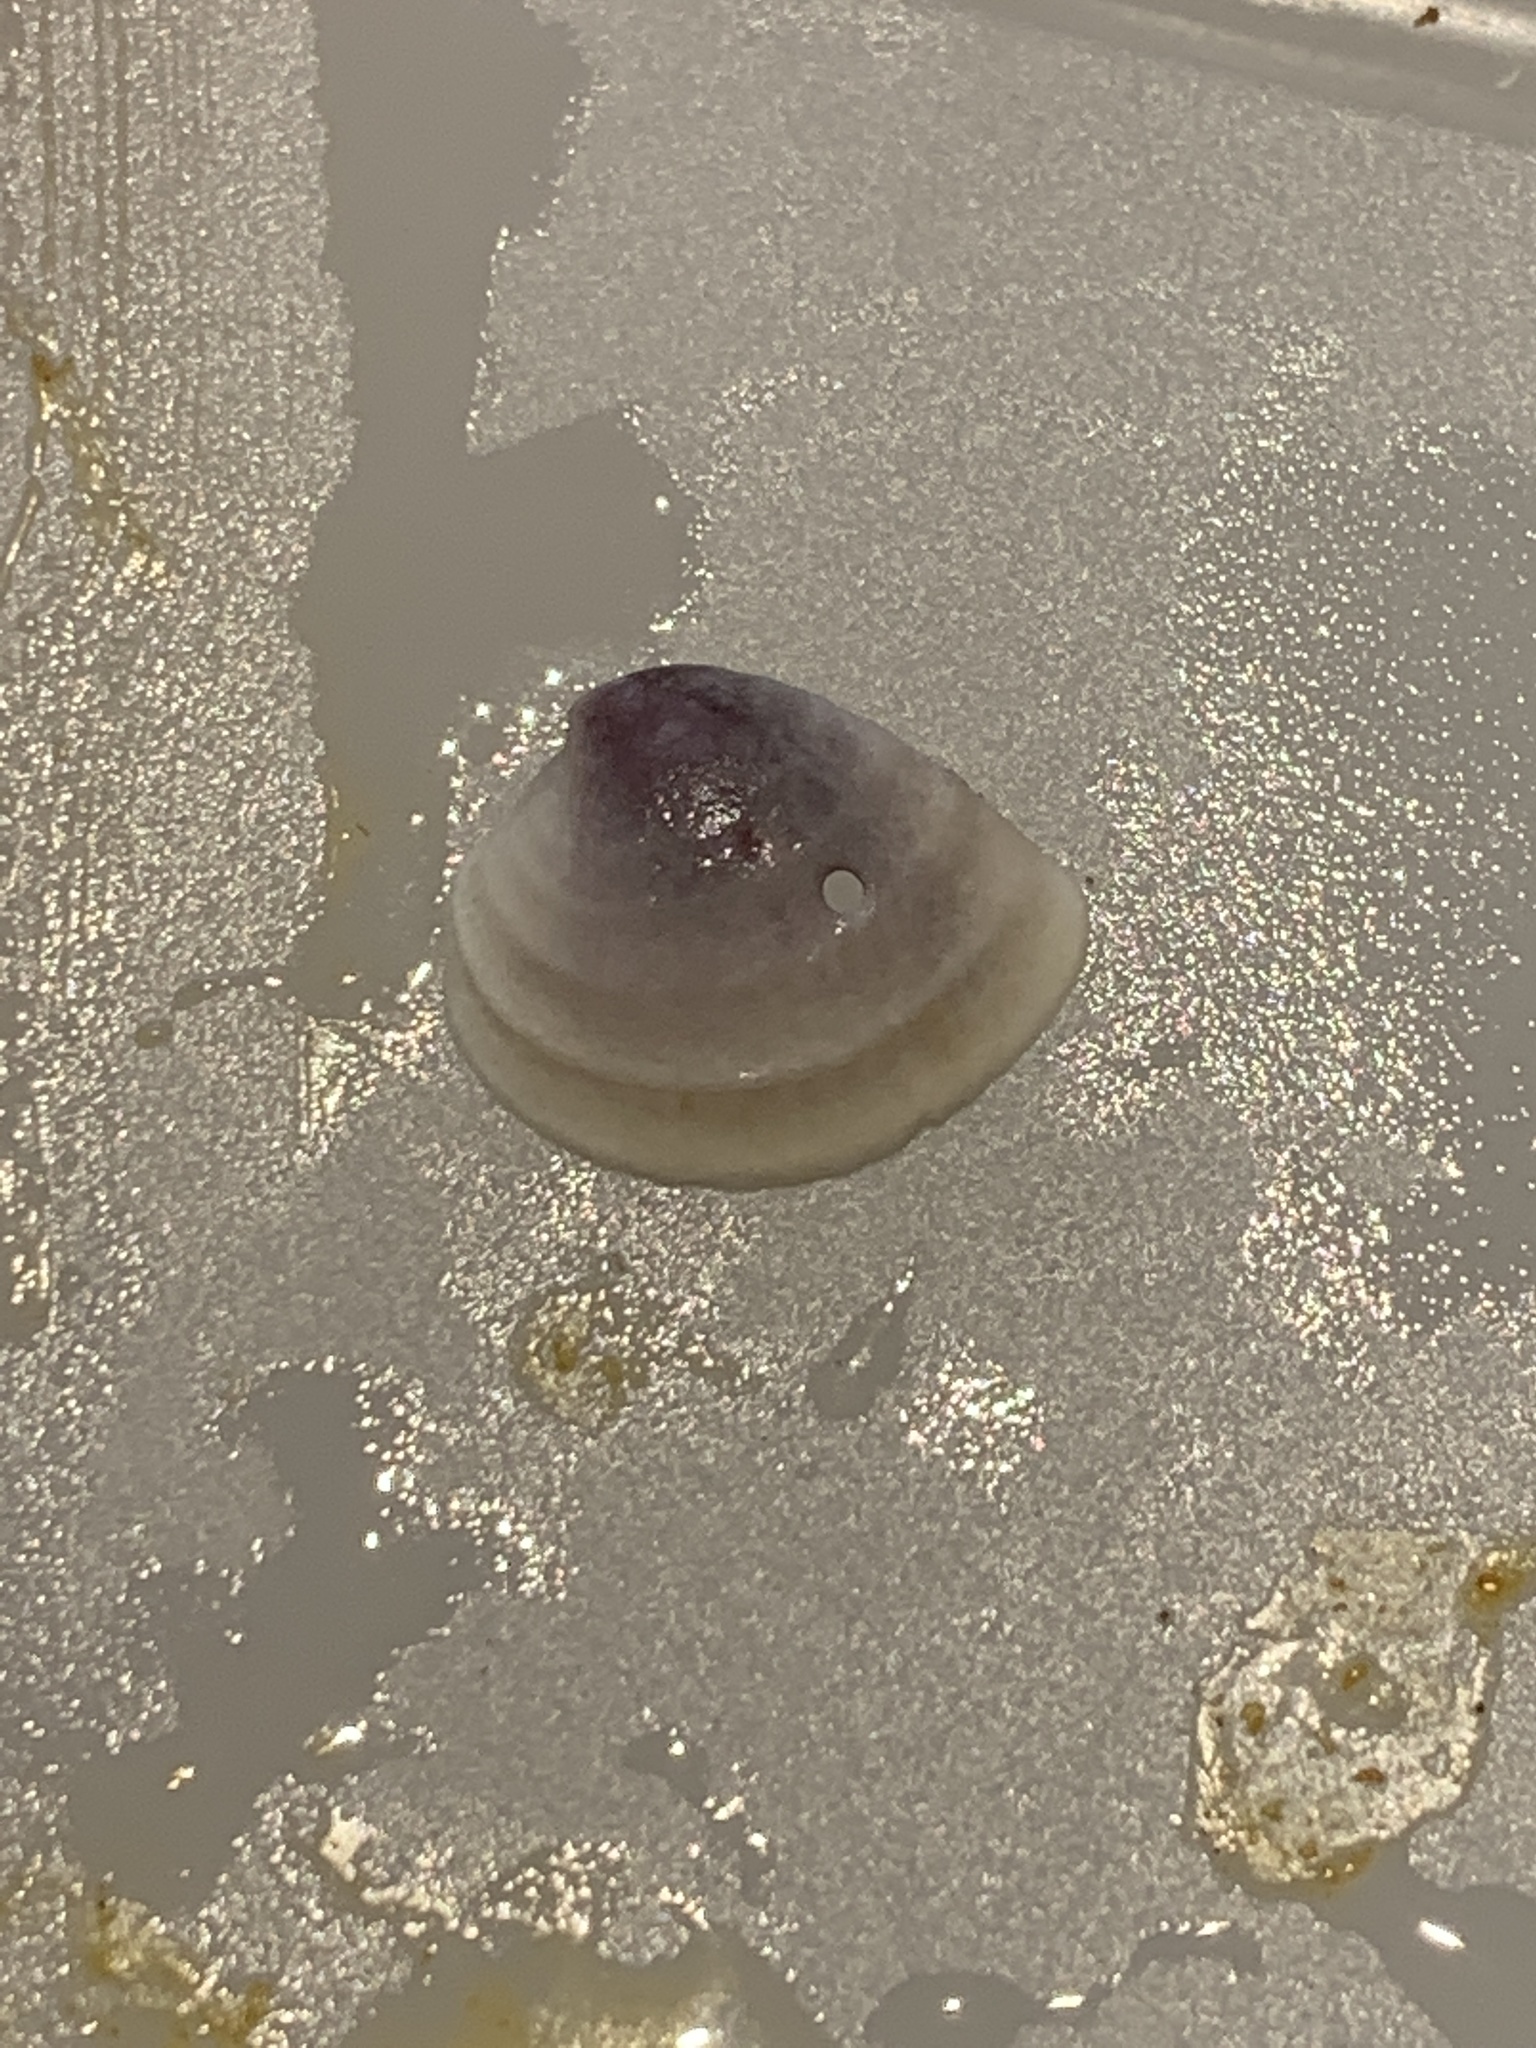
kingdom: Animalia
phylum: Mollusca
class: Bivalvia
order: Venerida
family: Veneridae
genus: Chione
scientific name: Chione elevata
